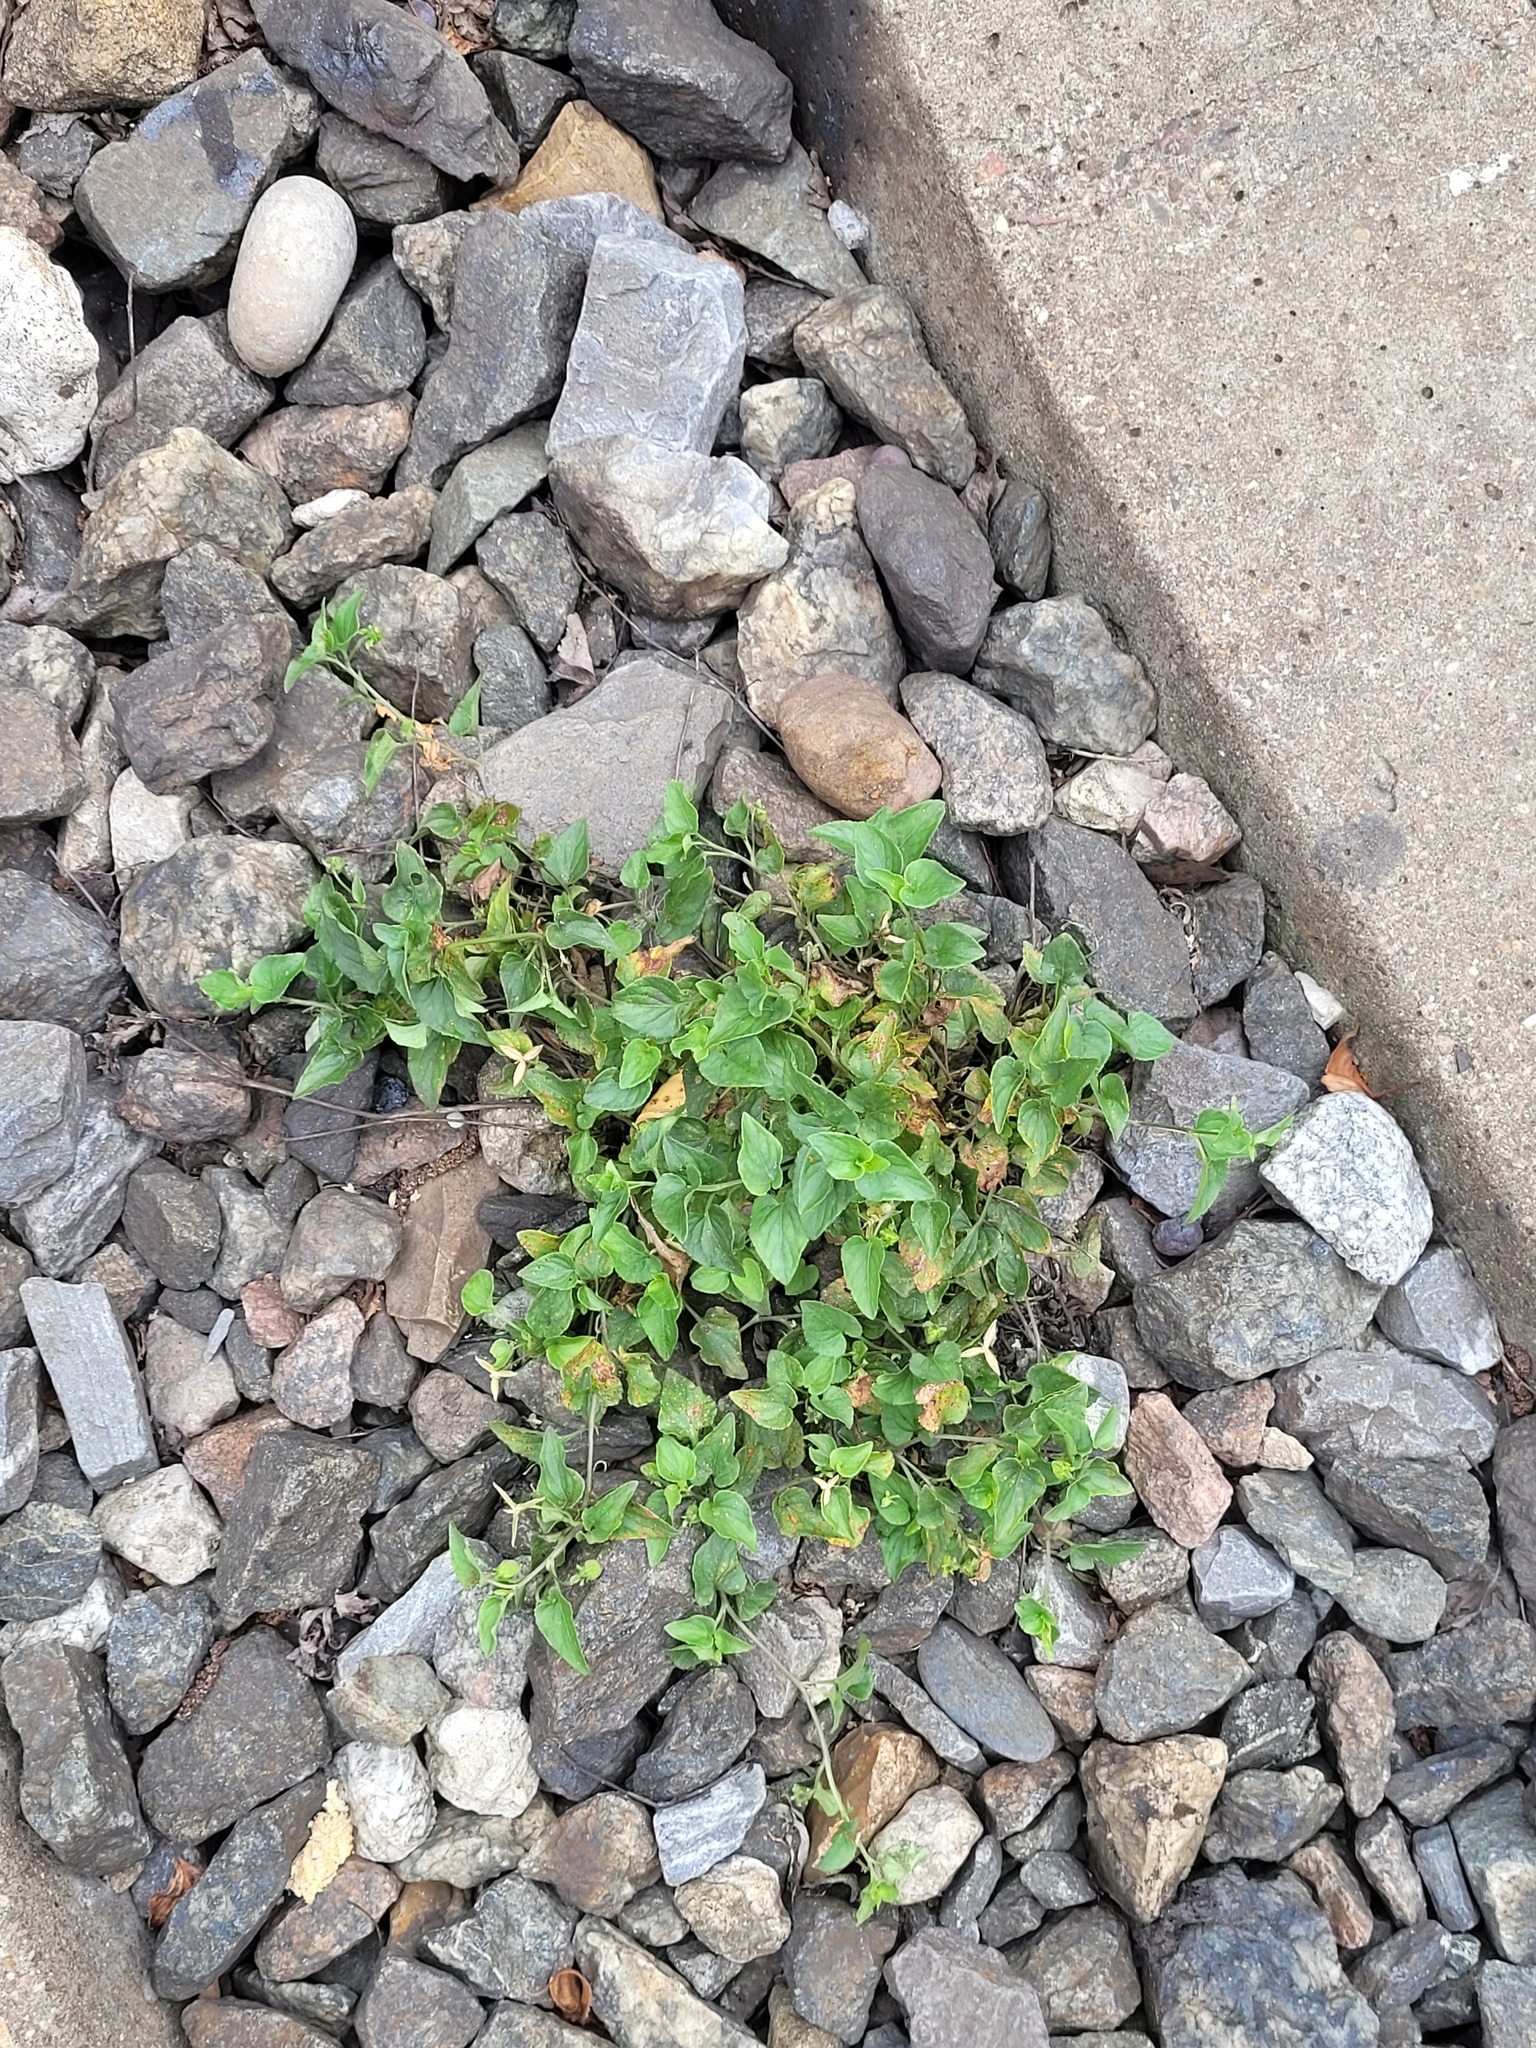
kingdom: Plantae
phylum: Tracheophyta
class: Magnoliopsida
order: Malpighiales
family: Violaceae
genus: Viola
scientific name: Viola canina
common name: Heath dog-violet
